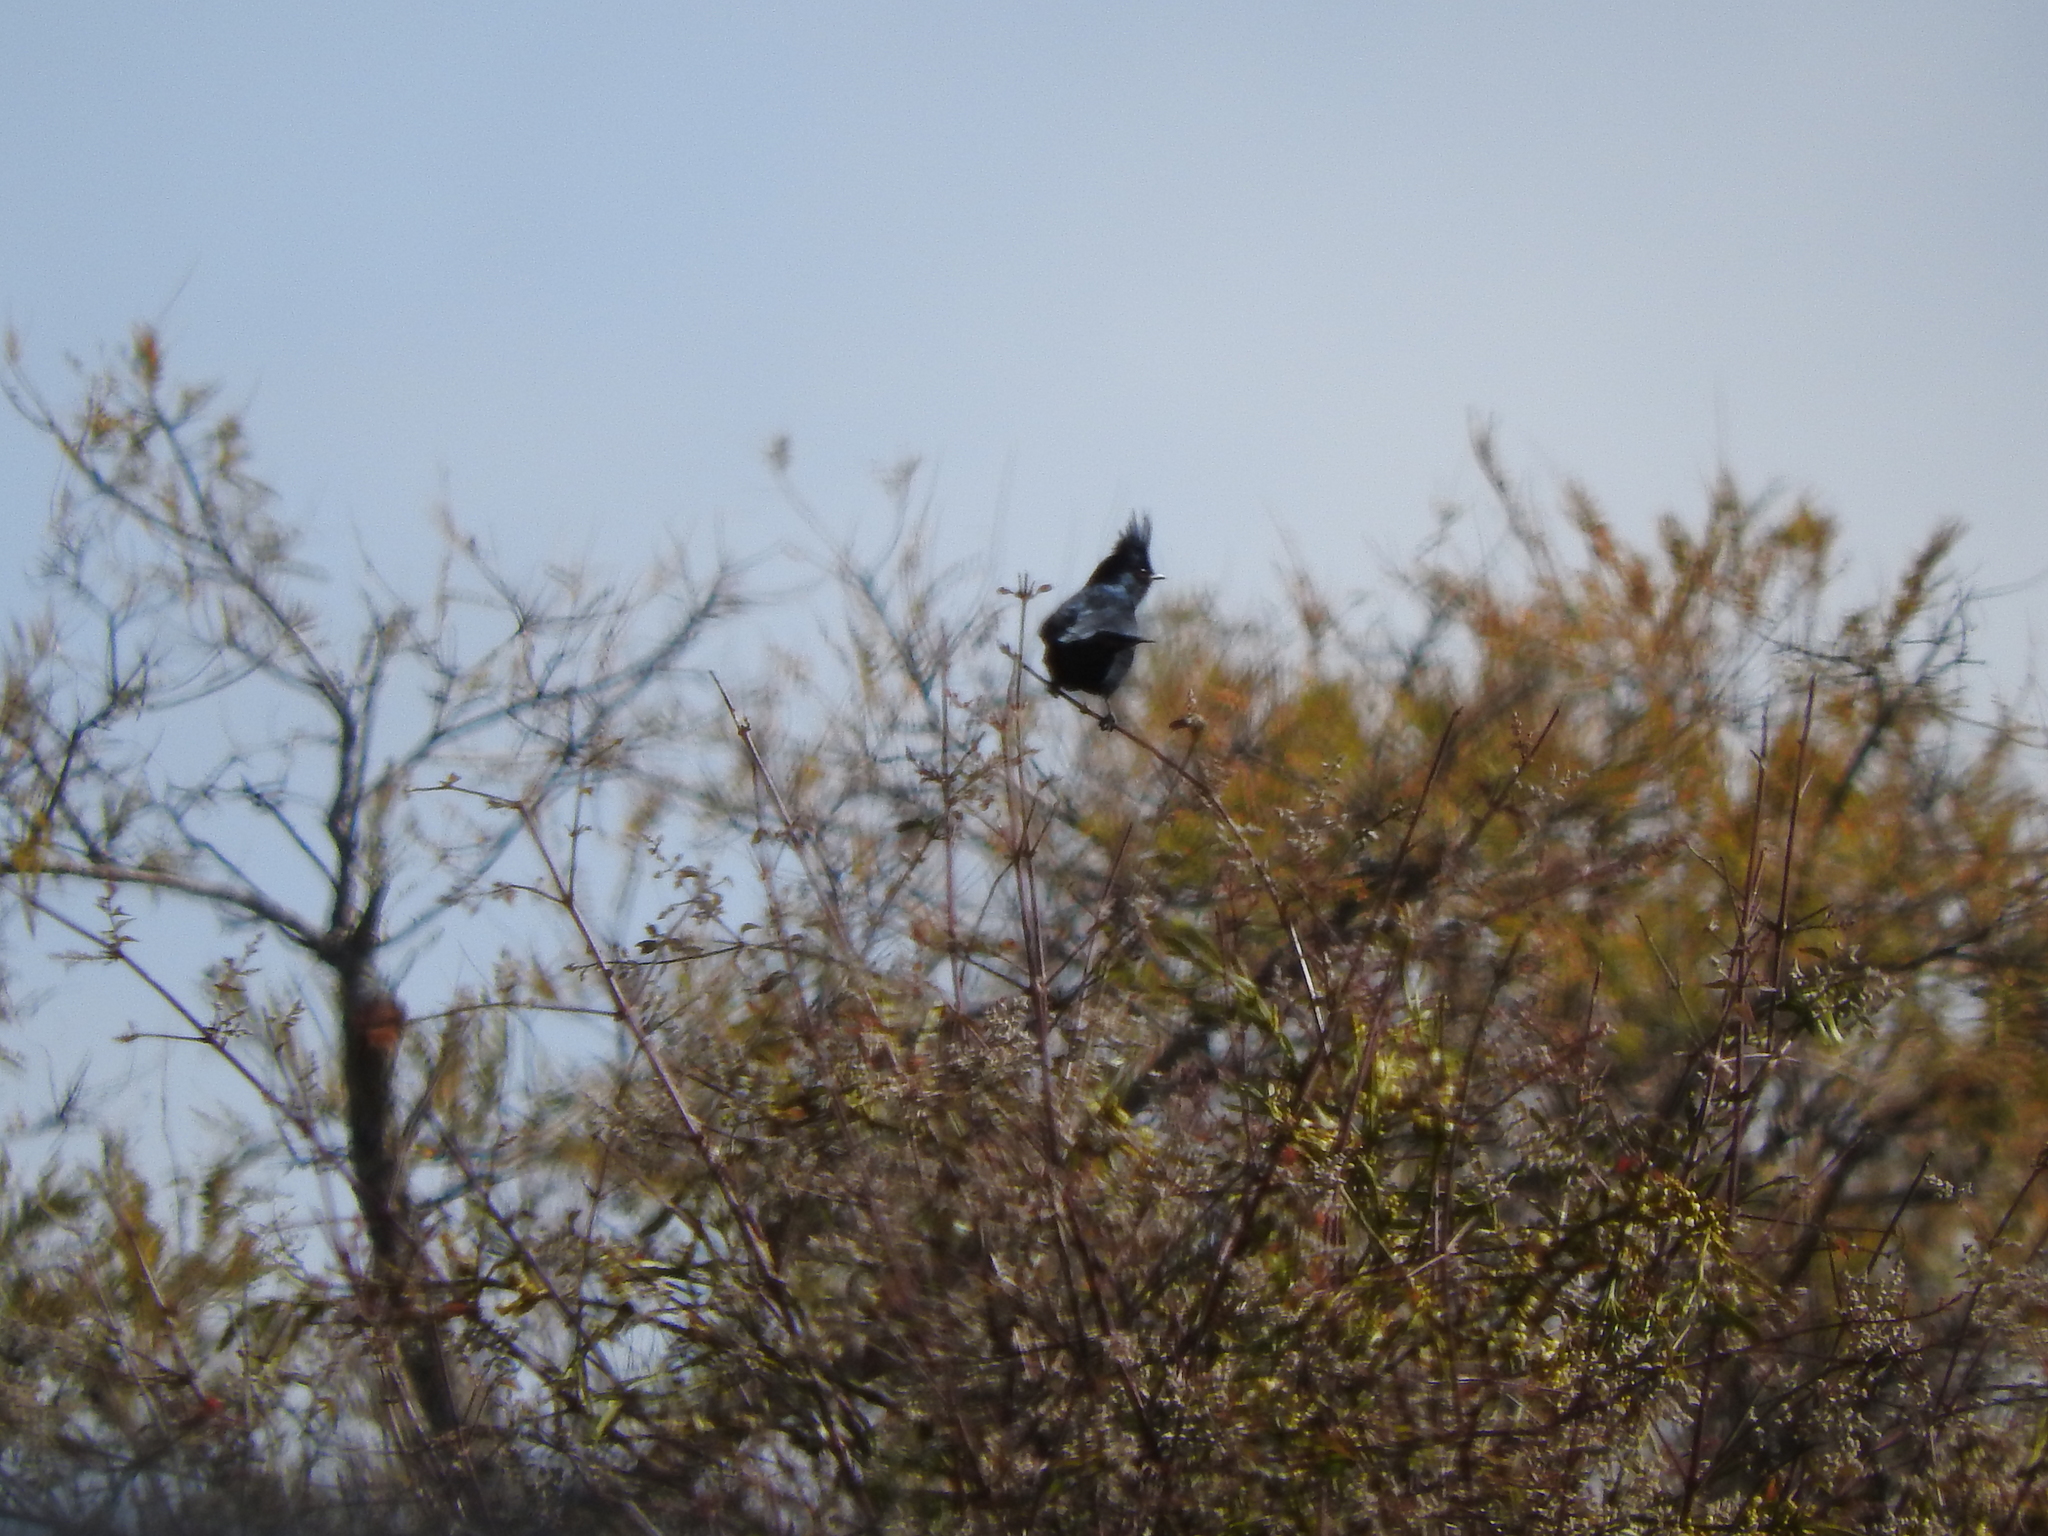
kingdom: Animalia
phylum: Chordata
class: Aves
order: Passeriformes
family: Ptilogonatidae
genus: Phainopepla
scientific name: Phainopepla nitens
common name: Phainopepla
